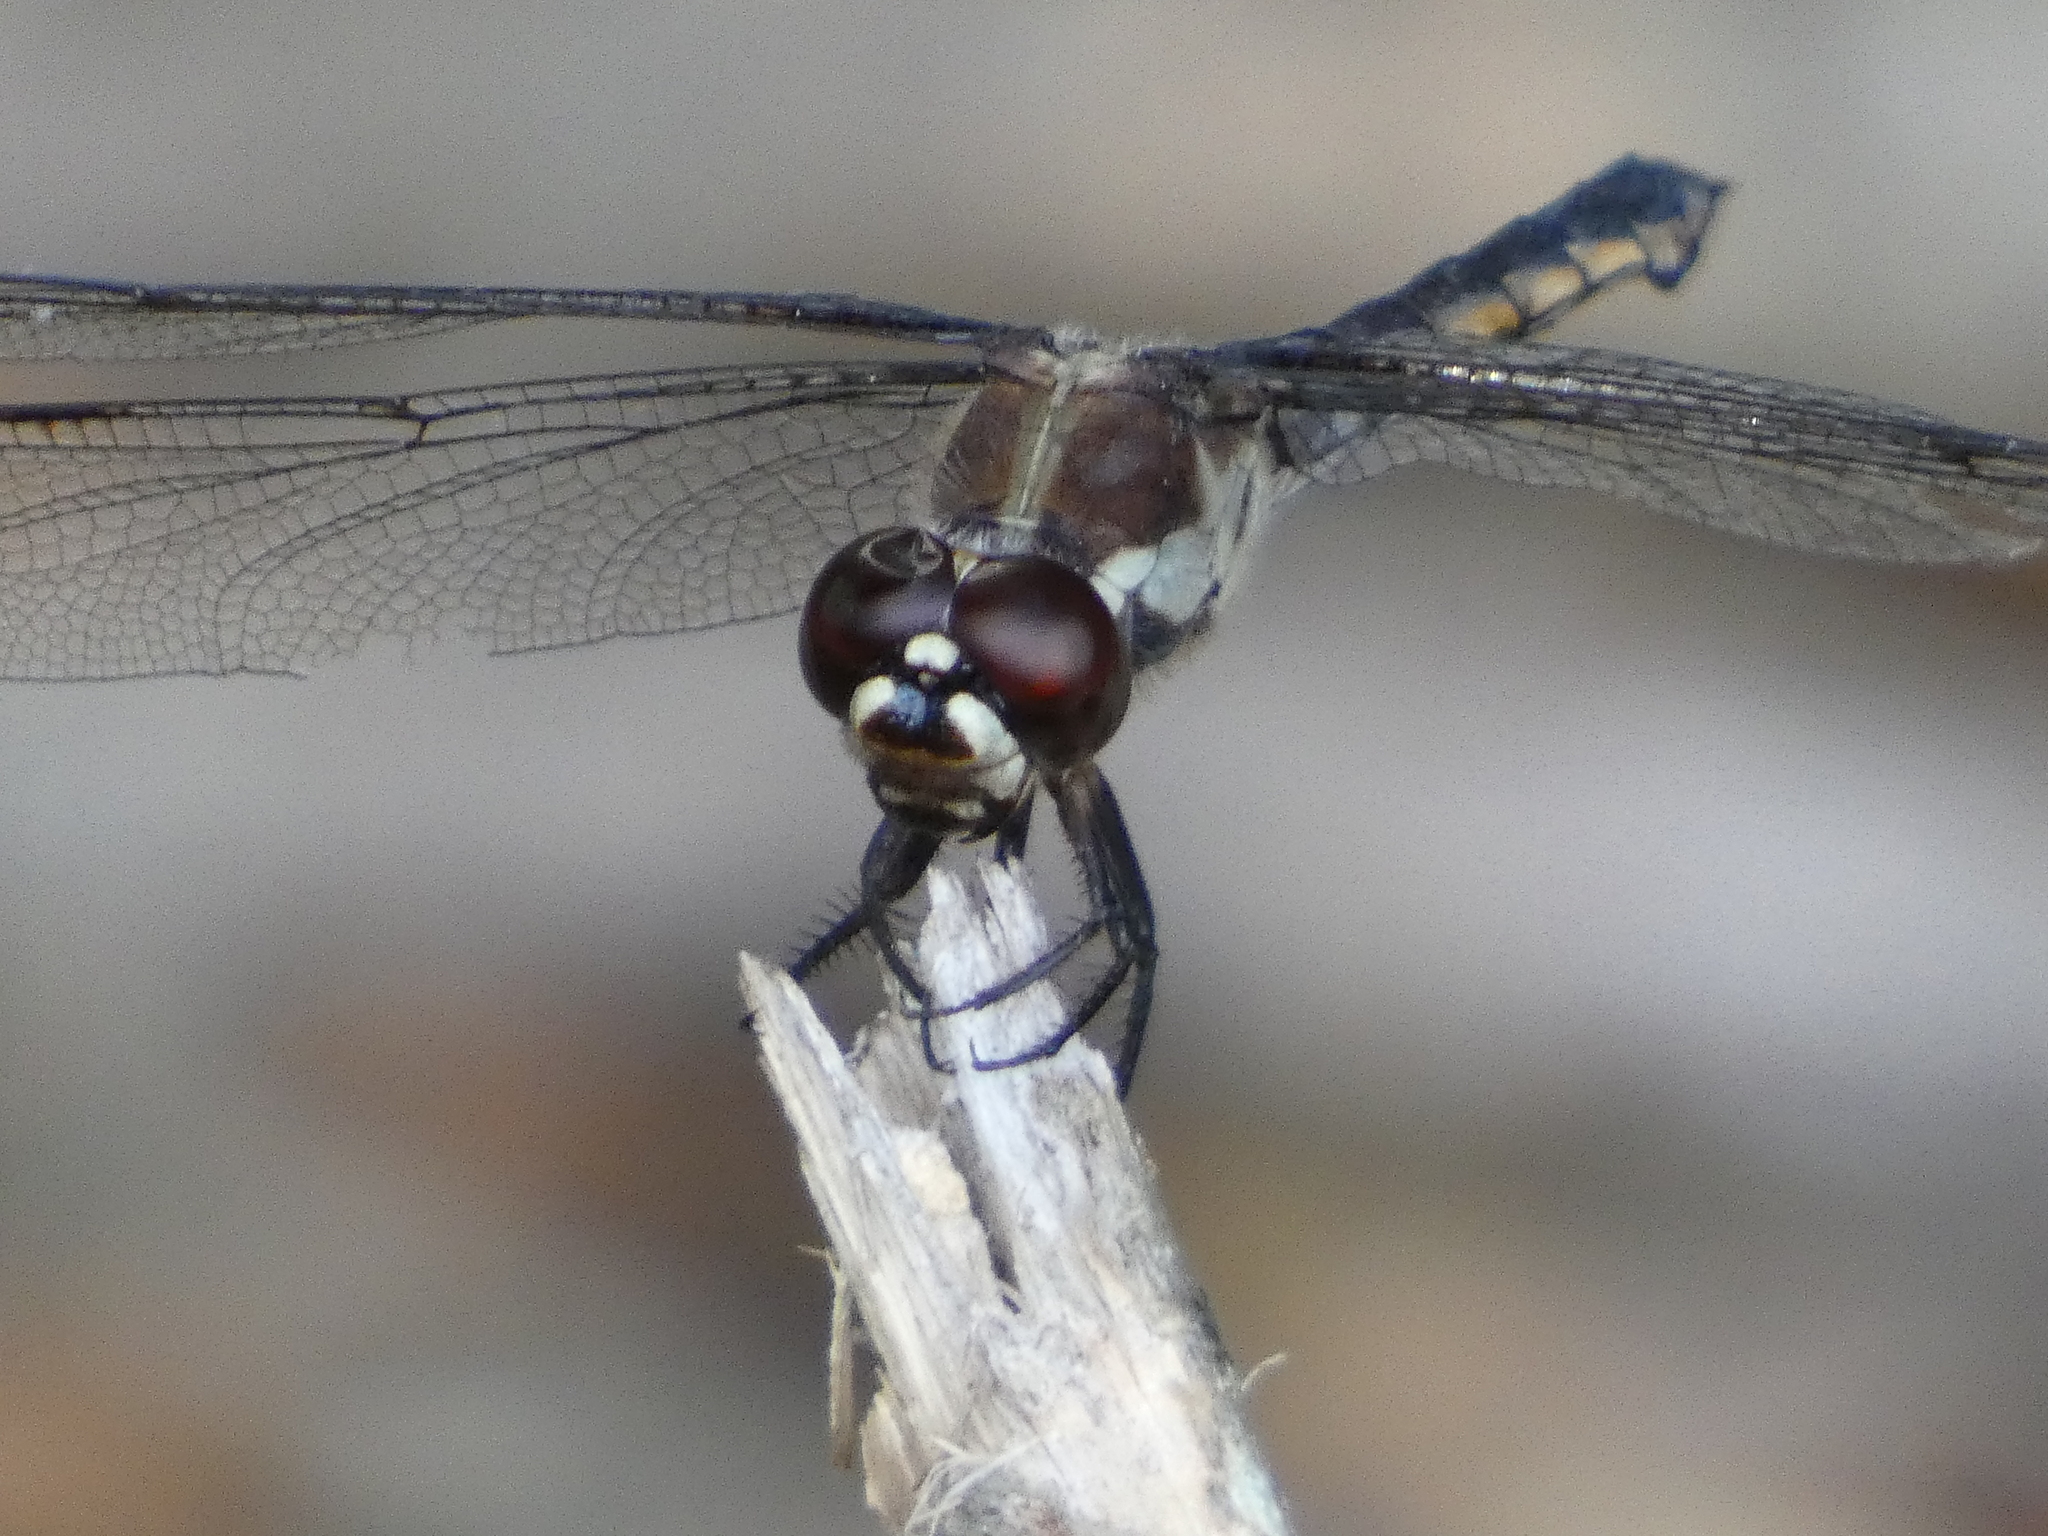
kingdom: Animalia
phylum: Arthropoda
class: Insecta
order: Odonata
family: Libellulidae
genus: Libellula
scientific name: Libellula axilena
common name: Bar-winged skimmer
